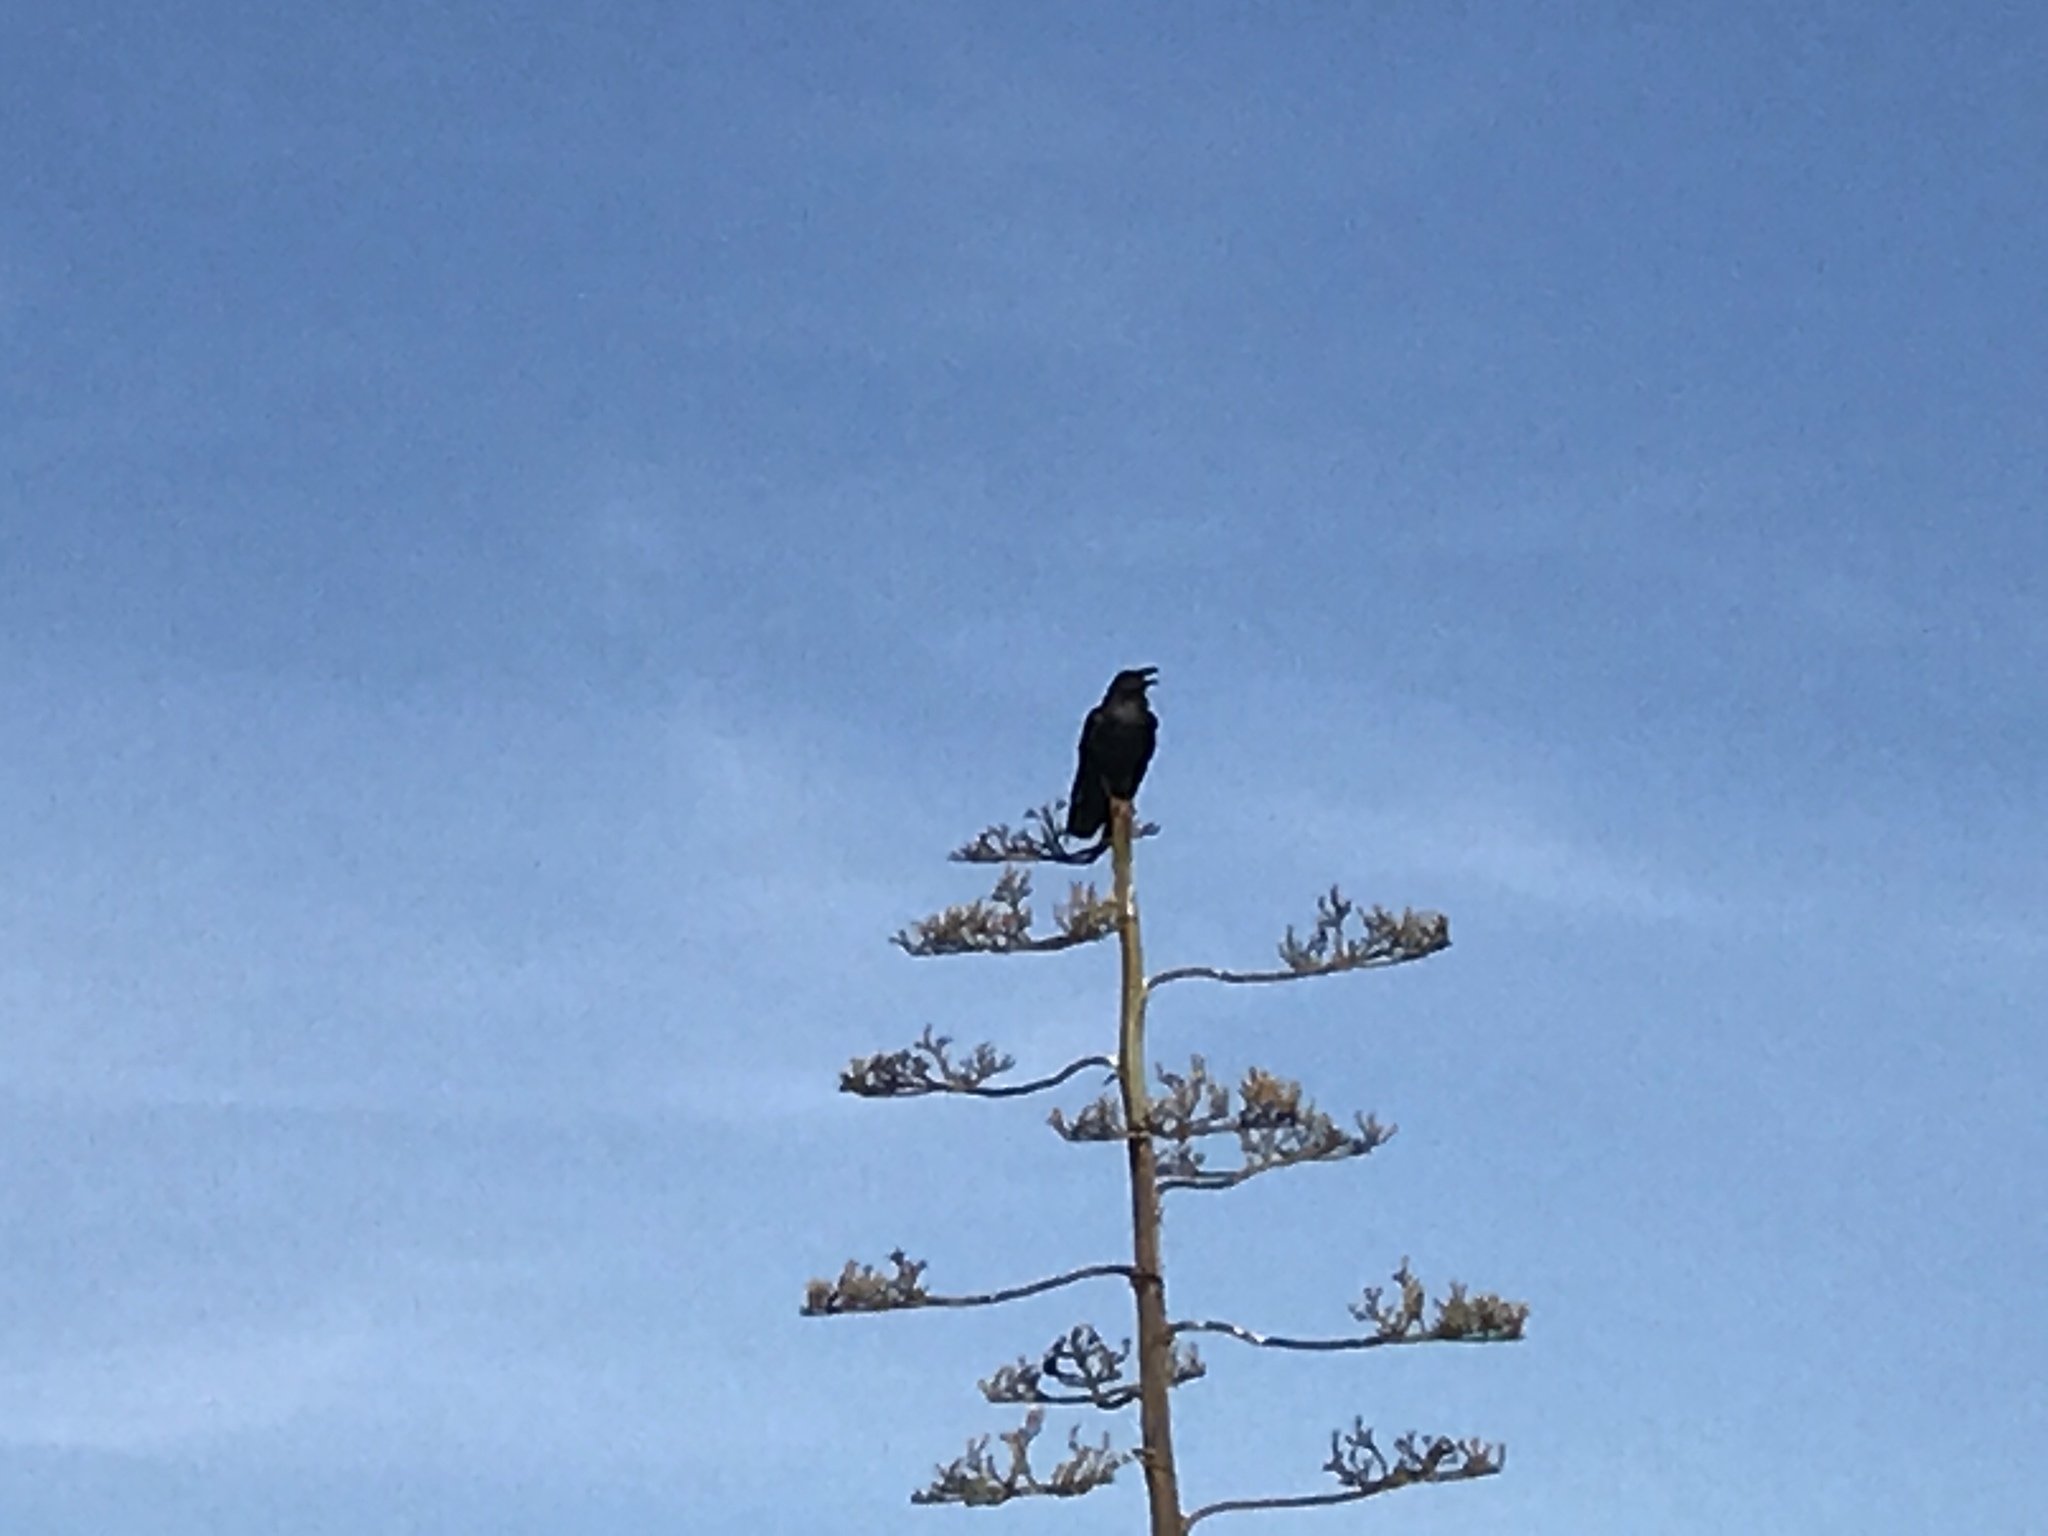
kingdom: Animalia
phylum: Chordata
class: Aves
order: Passeriformes
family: Corvidae
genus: Corvus
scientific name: Corvus corax
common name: Common raven
